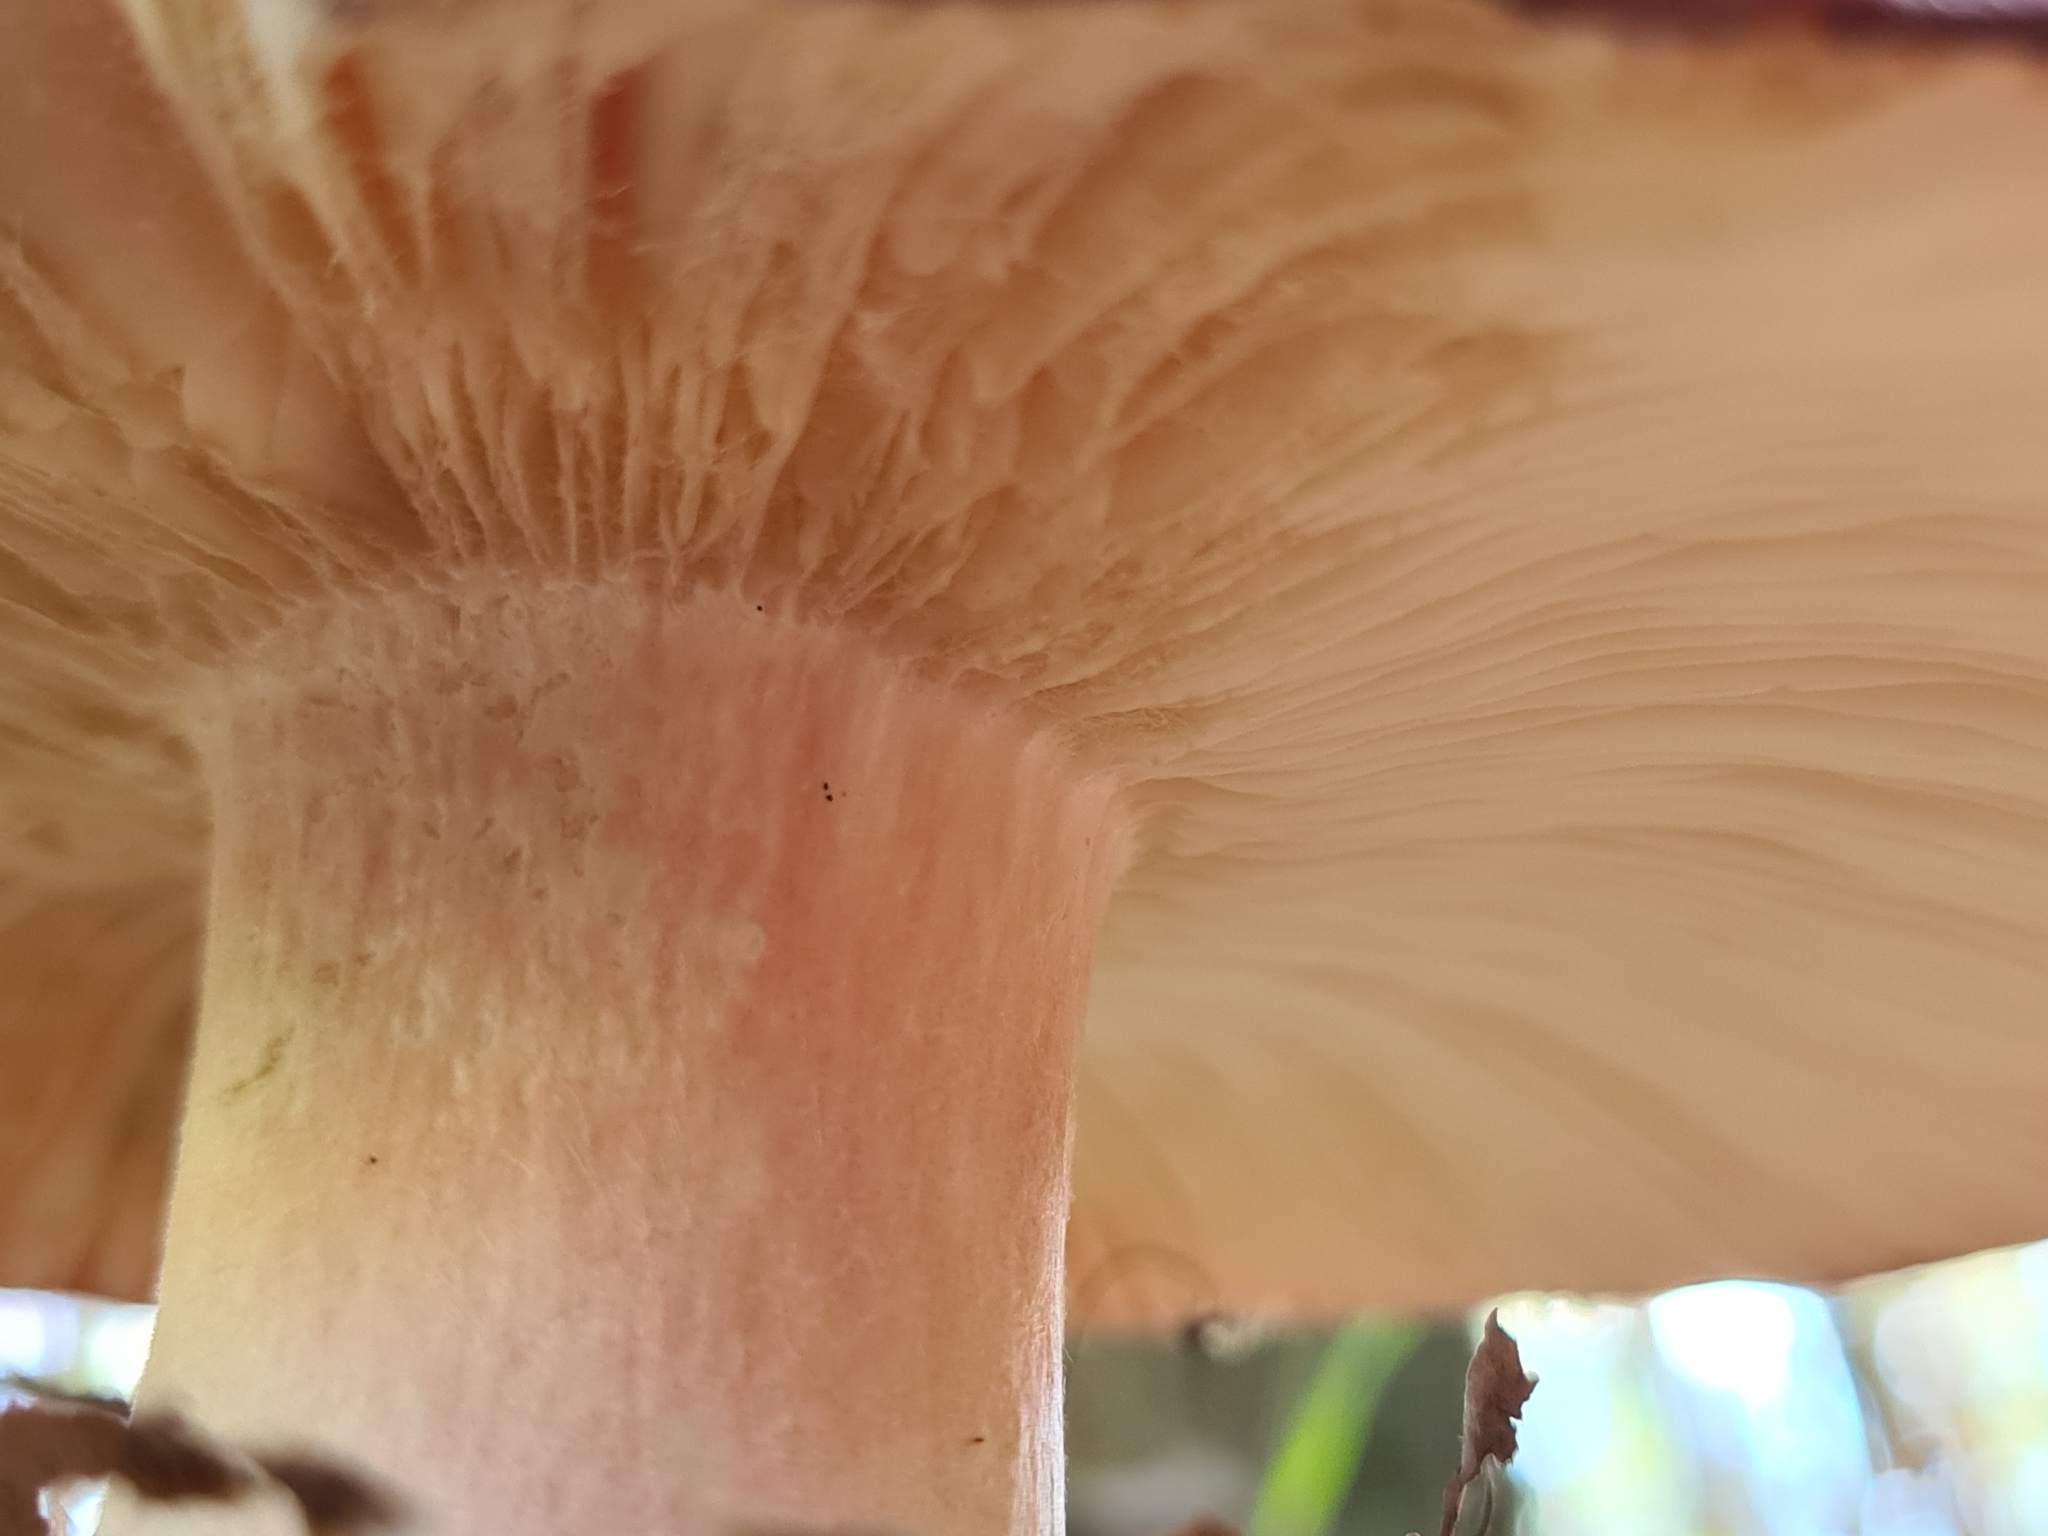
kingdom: Fungi
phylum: Basidiomycota
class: Agaricomycetes
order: Russulales
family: Russulaceae
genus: Russula
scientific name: Russula
